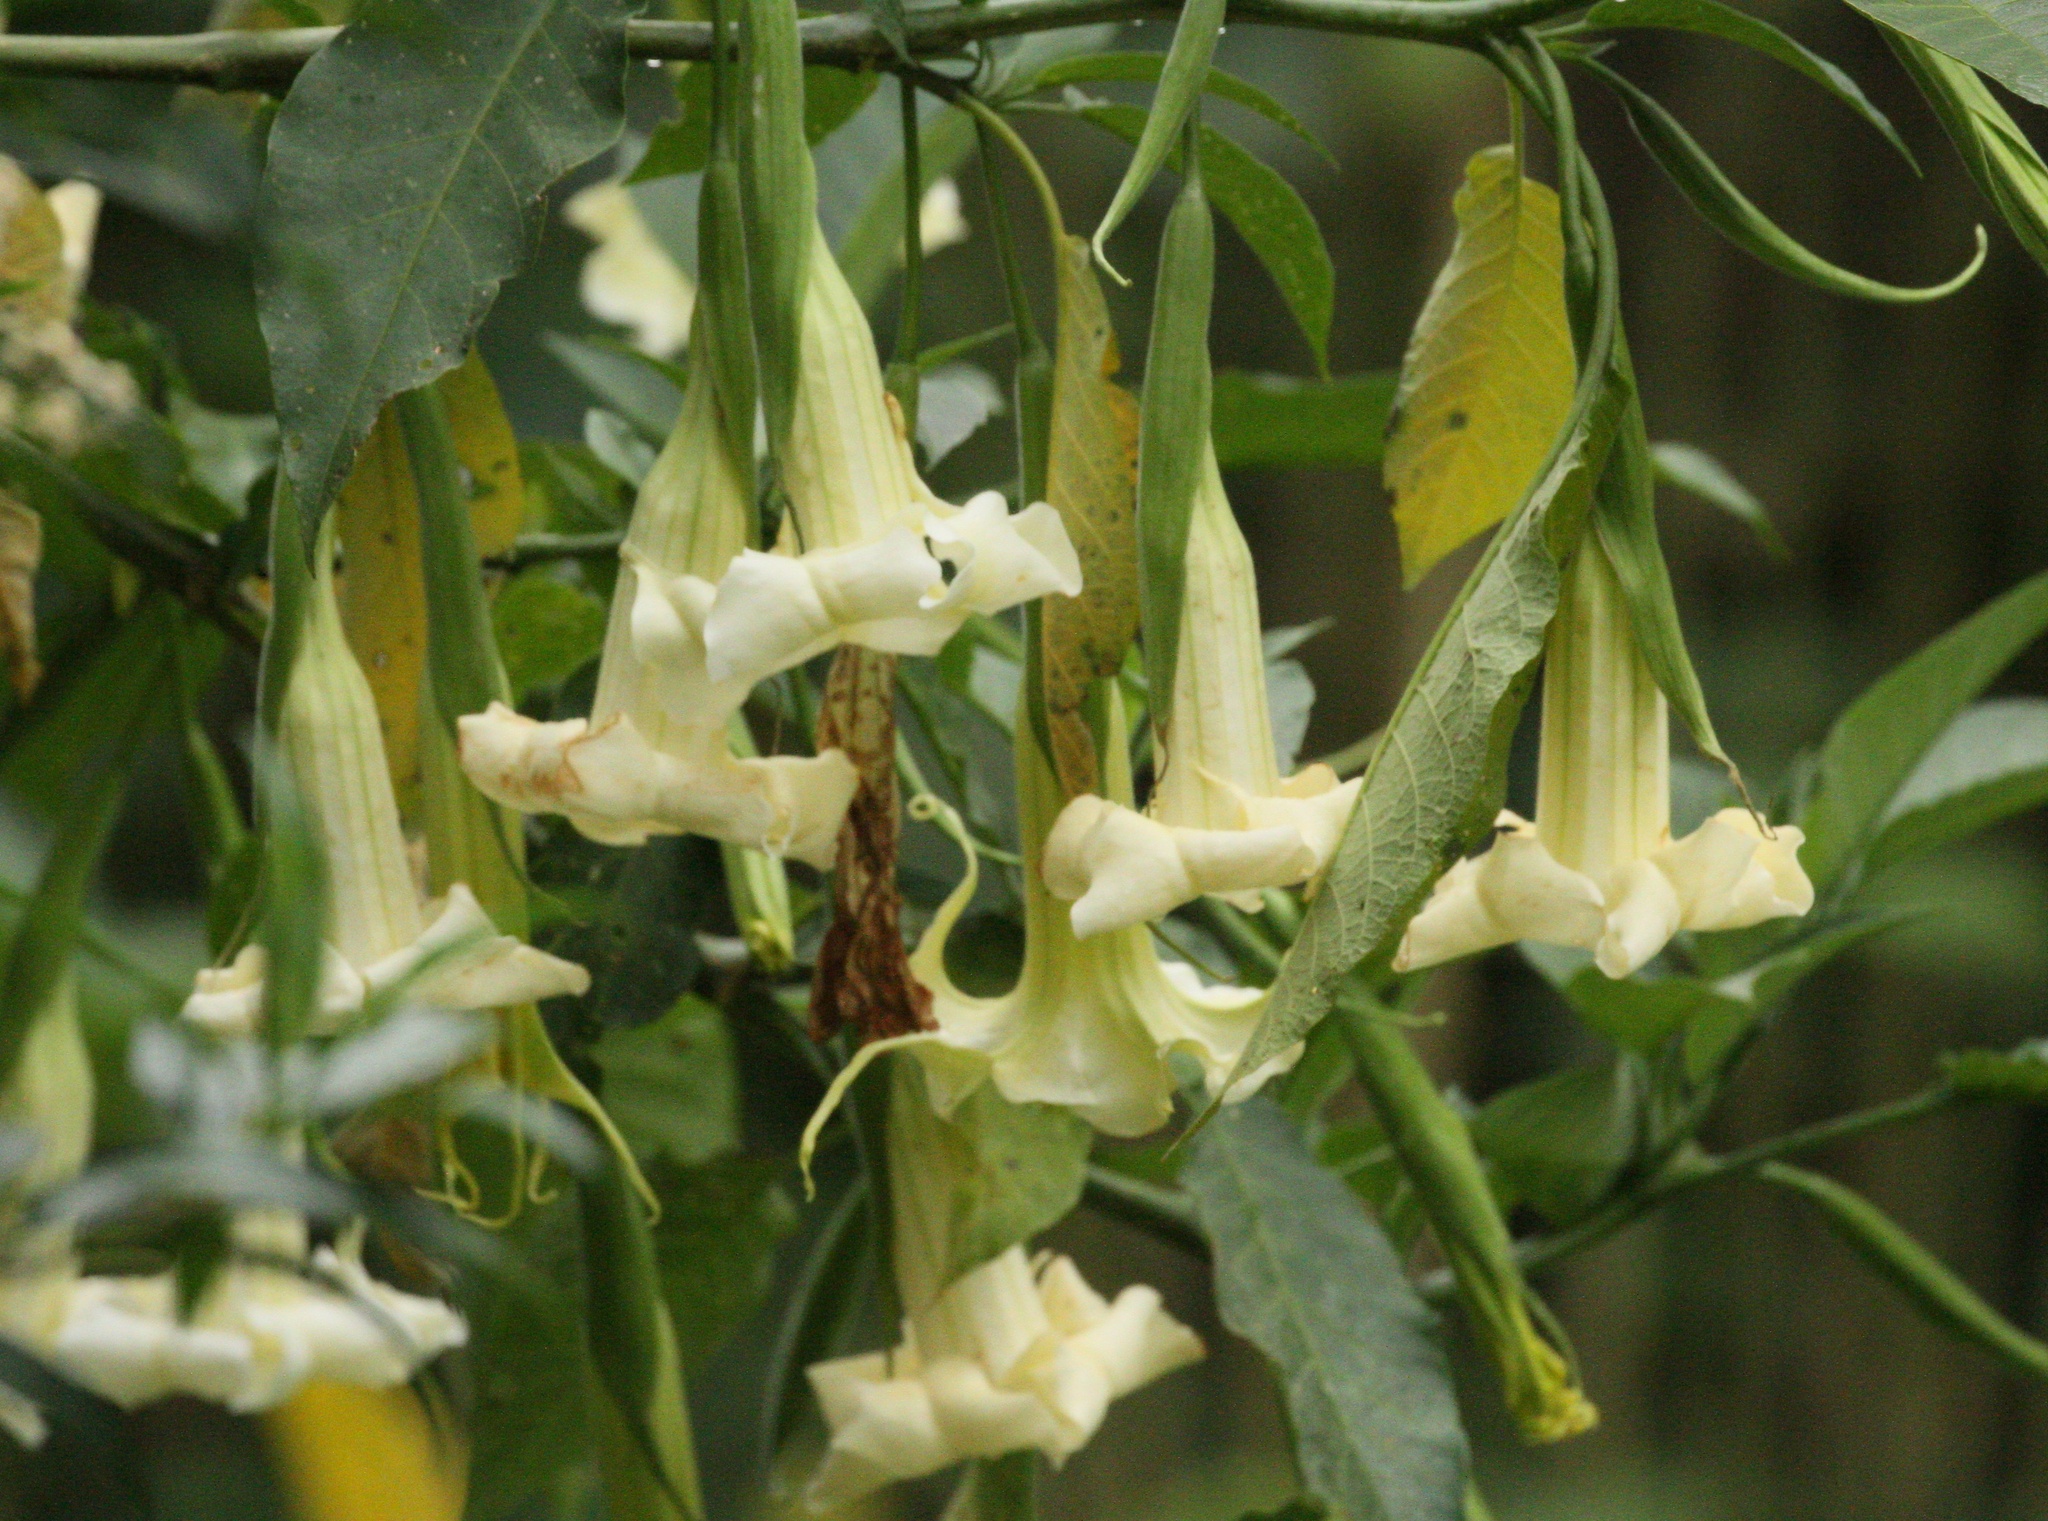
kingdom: Plantae
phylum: Tracheophyta
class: Magnoliopsida
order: Solanales
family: Solanaceae
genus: Brugmansia
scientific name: Brugmansia arborea
